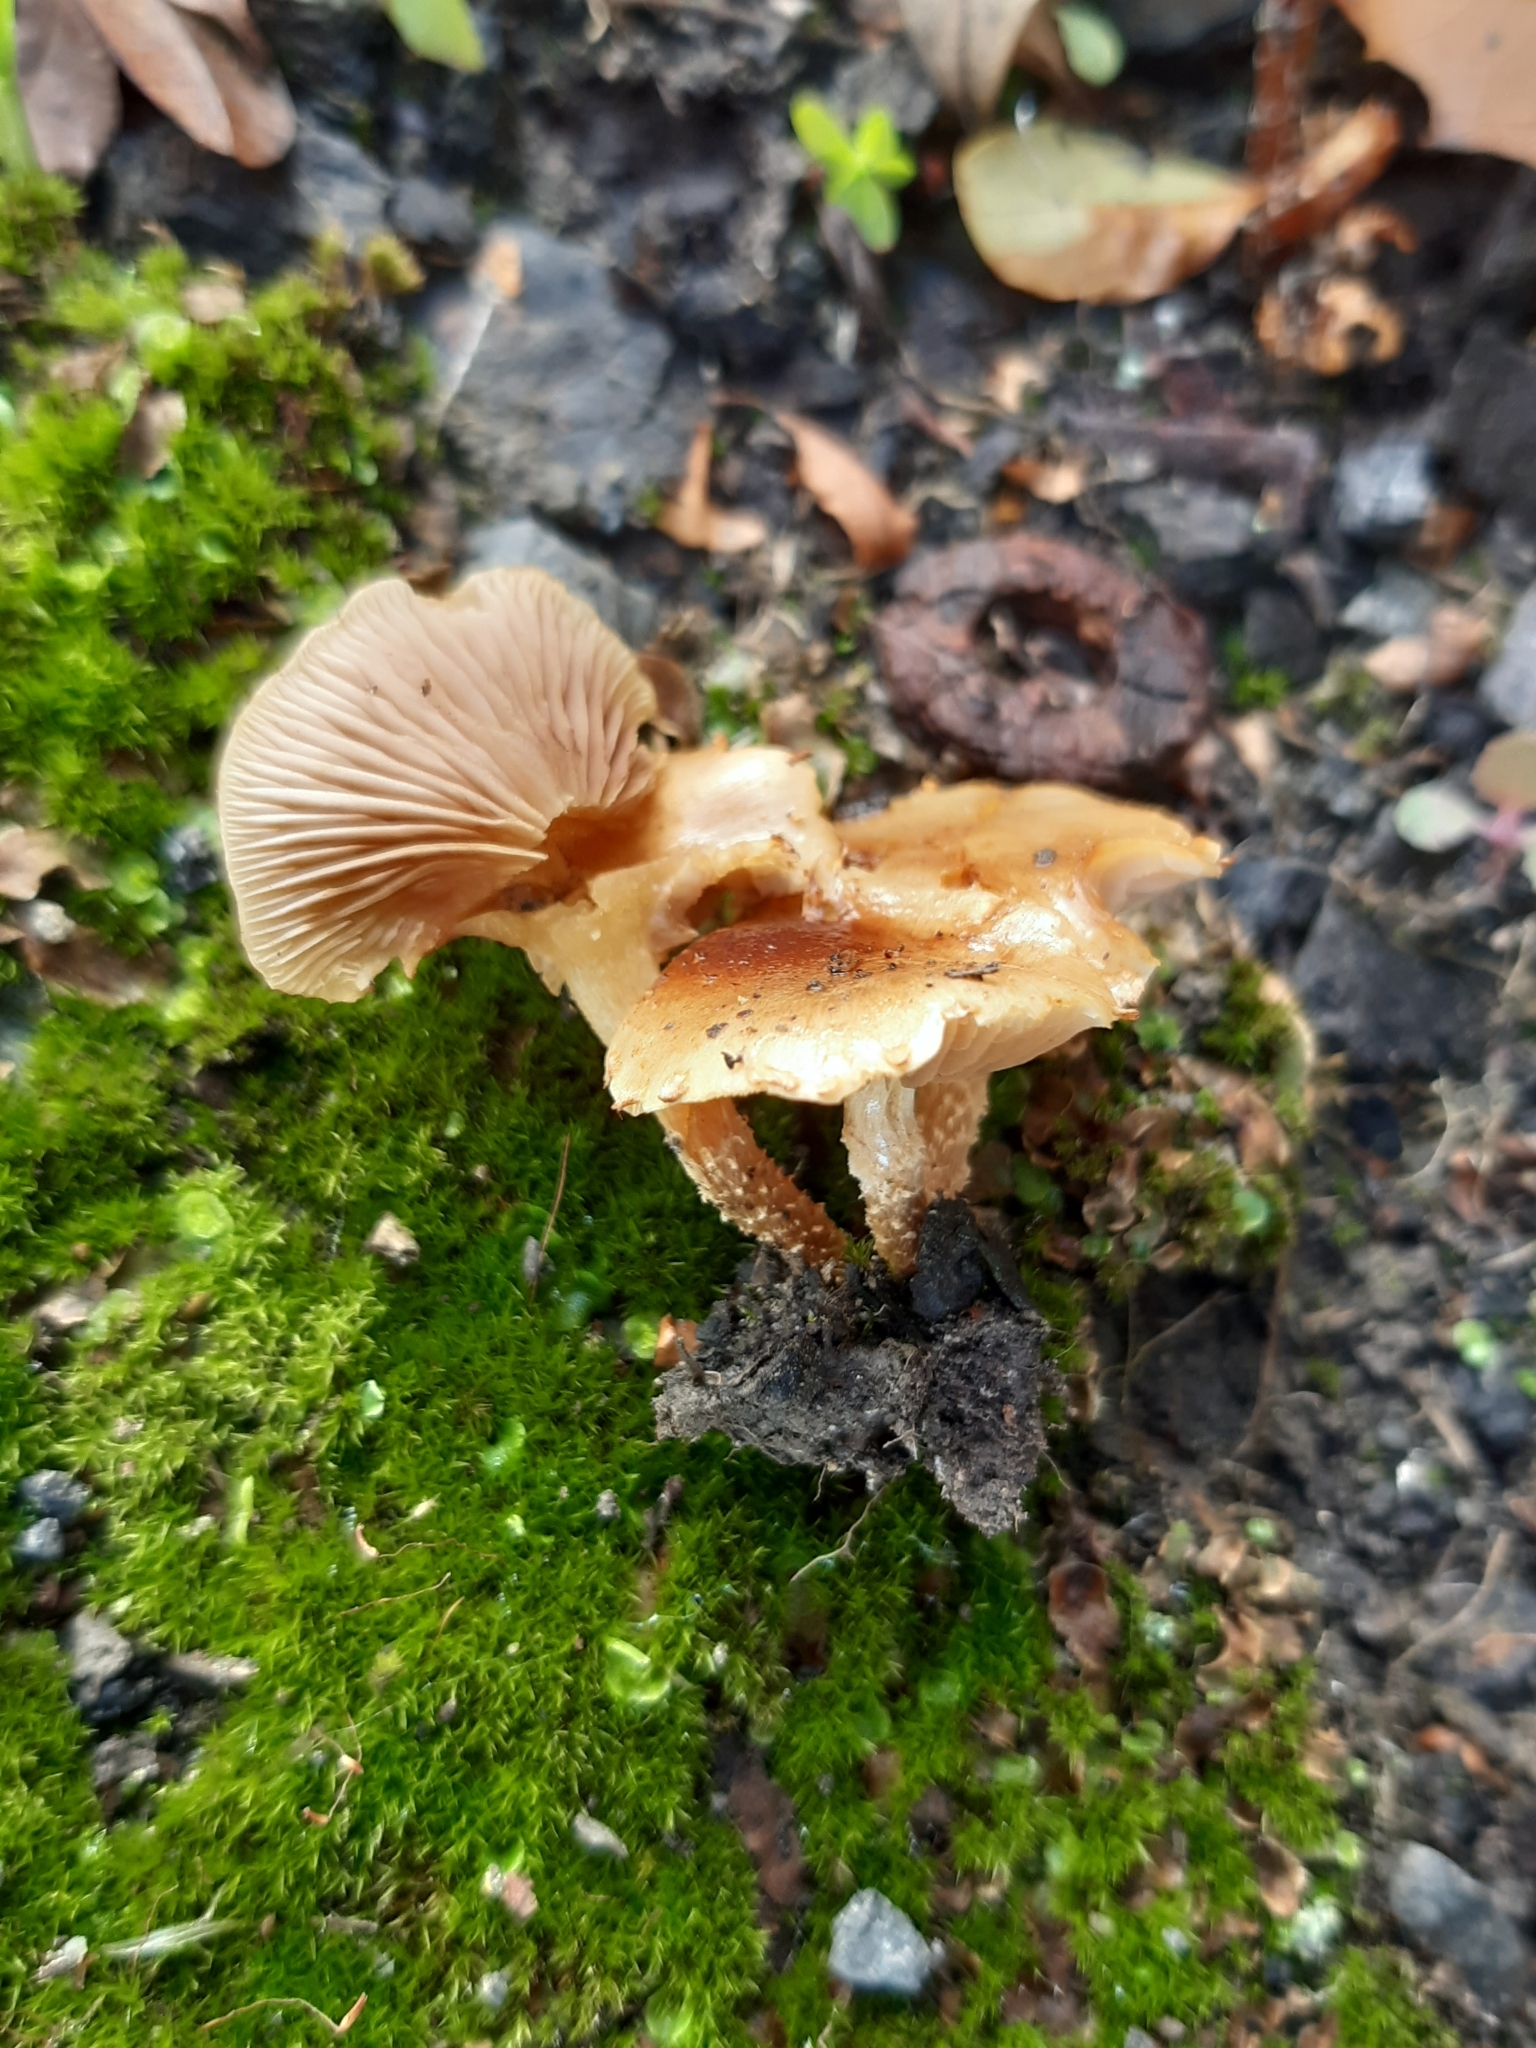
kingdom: Fungi
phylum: Basidiomycota
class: Agaricomycetes
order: Agaricales
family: Strophariaceae
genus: Pholiota
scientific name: Pholiota subflammans
